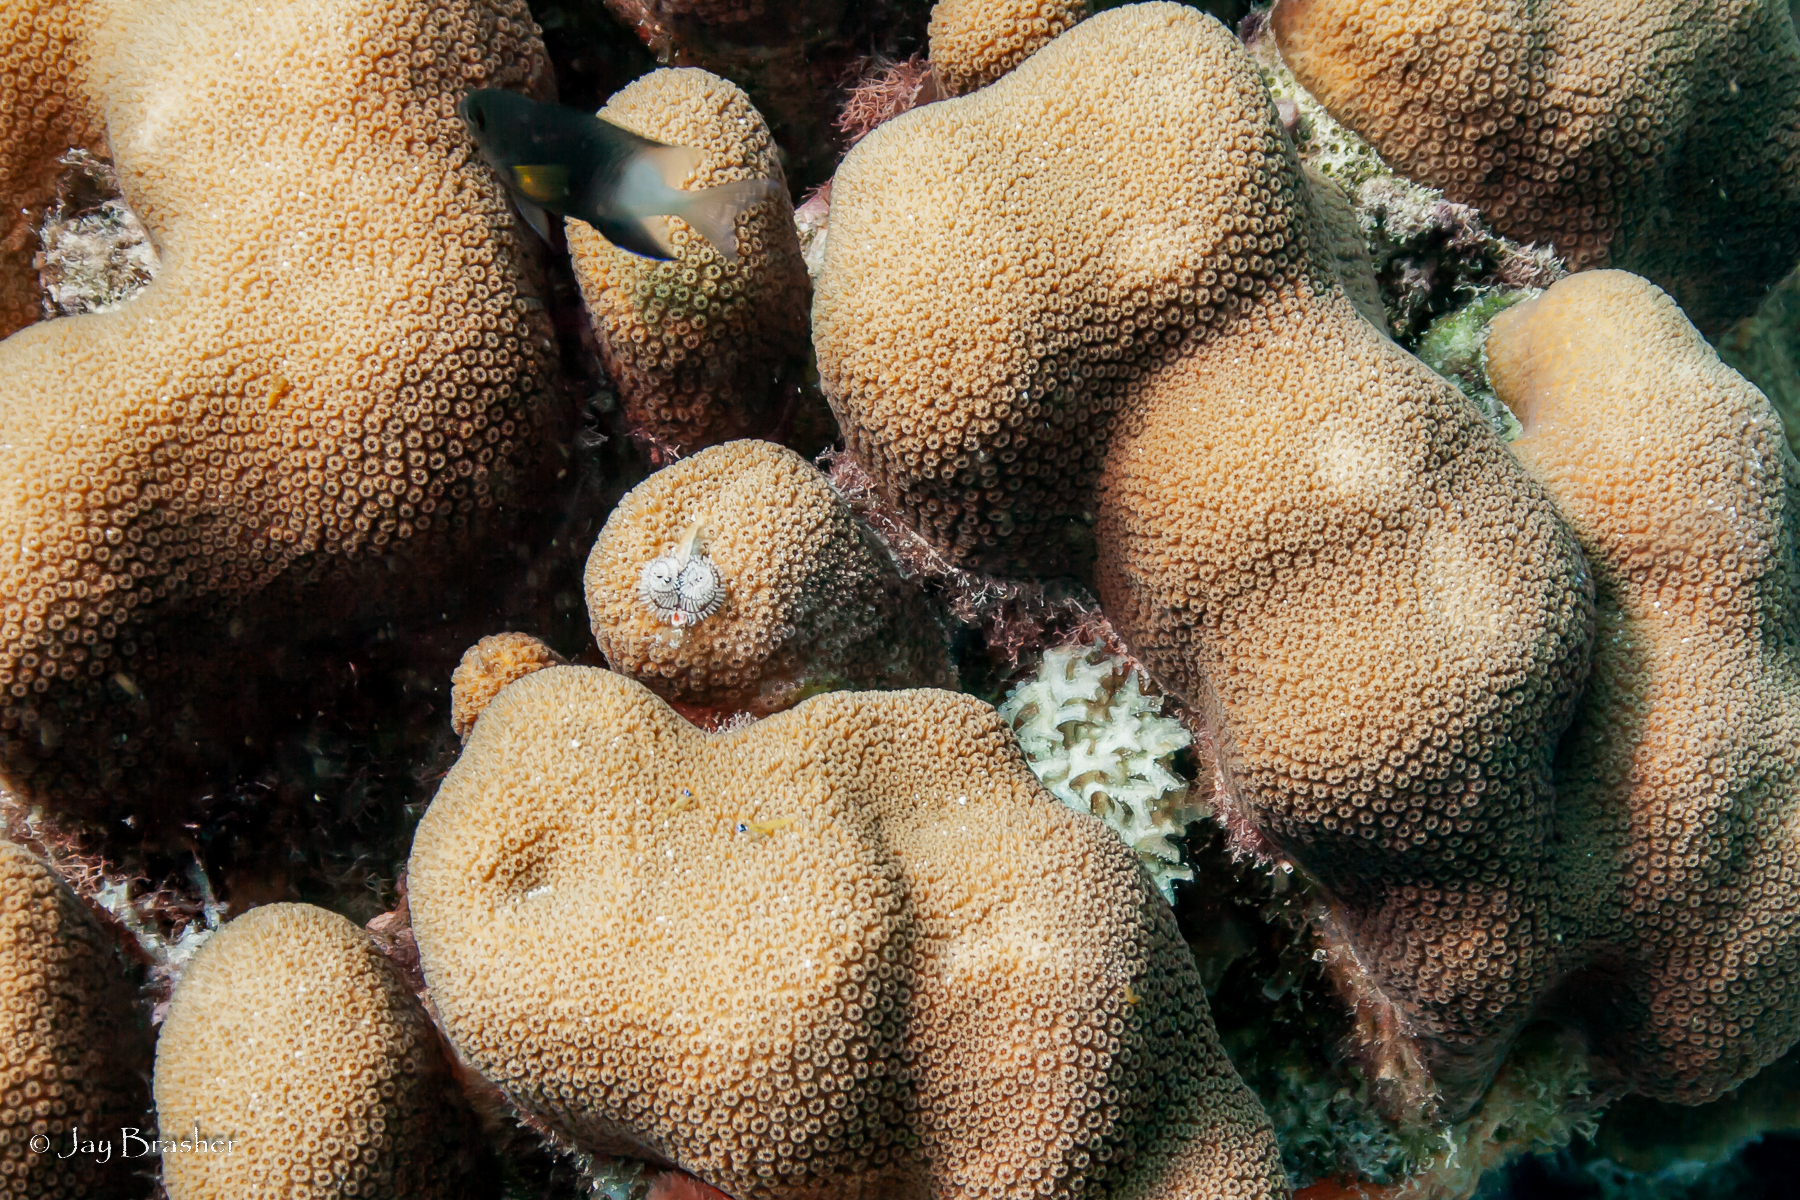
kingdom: Animalia
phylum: Chordata
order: Perciformes
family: Pomacentridae
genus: Stegastes
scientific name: Stegastes partitus
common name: Bicolor damselfish
